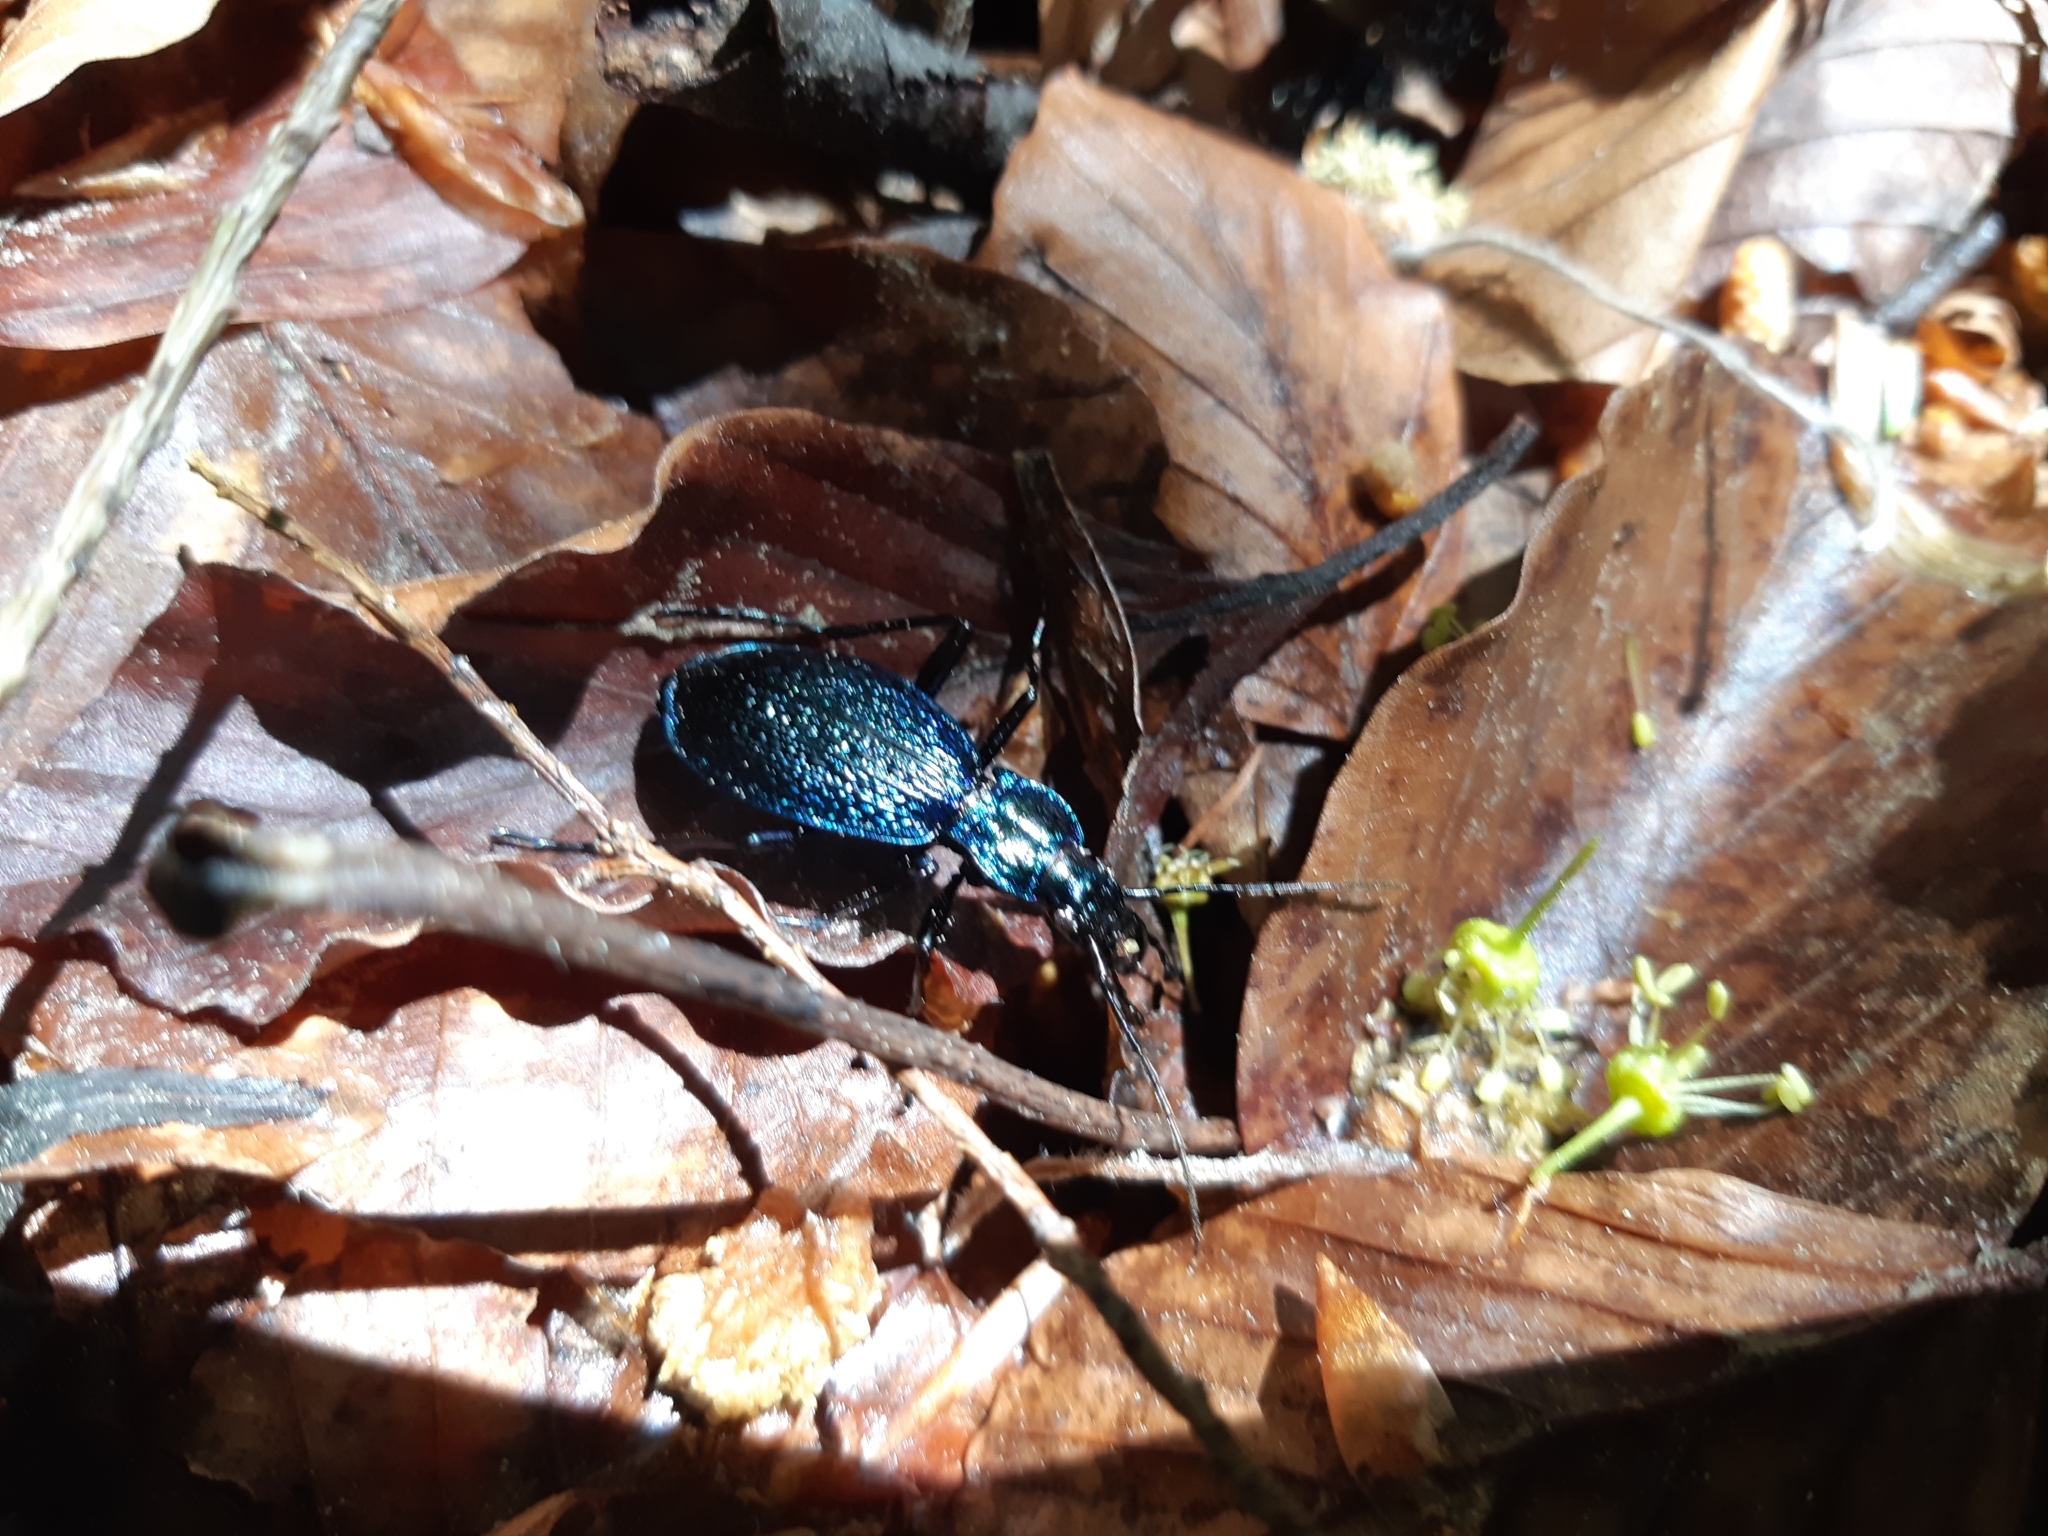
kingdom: Animalia
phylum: Arthropoda
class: Insecta
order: Coleoptera
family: Carabidae
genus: Carabus
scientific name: Carabus intricatus
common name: Blue ground beetle
